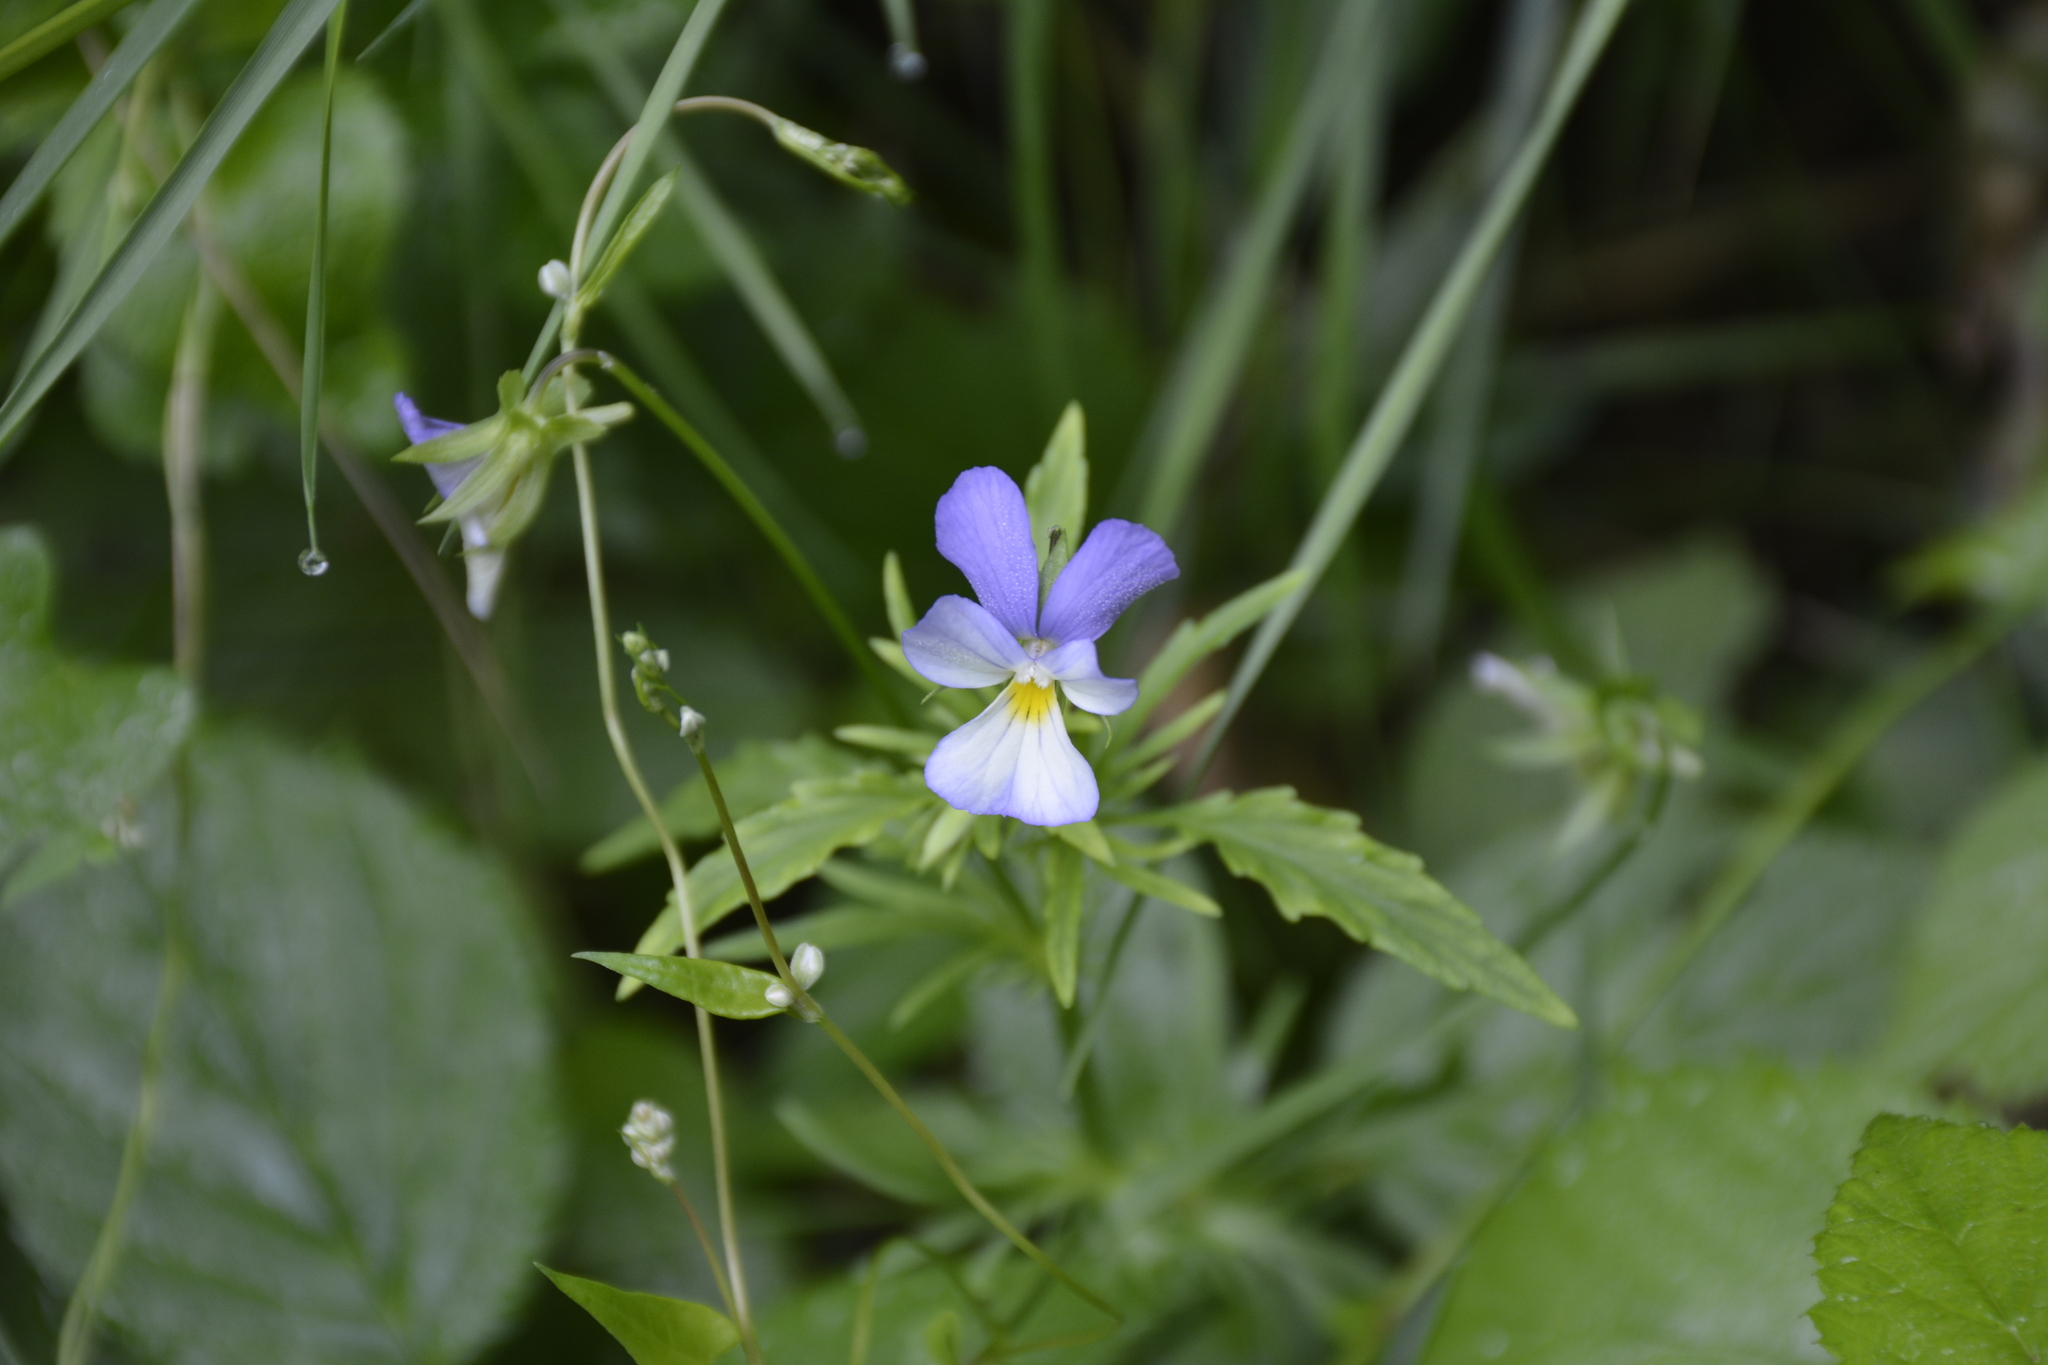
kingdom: Plantae
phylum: Tracheophyta
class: Magnoliopsida
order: Malpighiales
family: Violaceae
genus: Viola
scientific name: Viola tricolor
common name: Pansy
